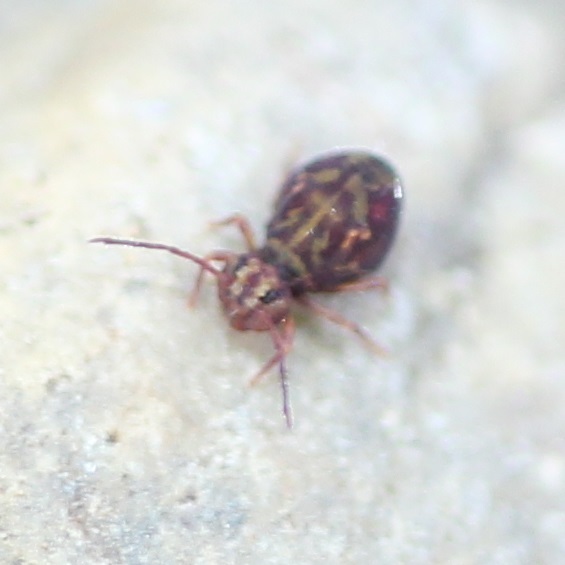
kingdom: Animalia
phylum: Arthropoda
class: Collembola
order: Symphypleona
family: Dicyrtomidae
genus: Dicyrtomina
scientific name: Dicyrtomina minuta
